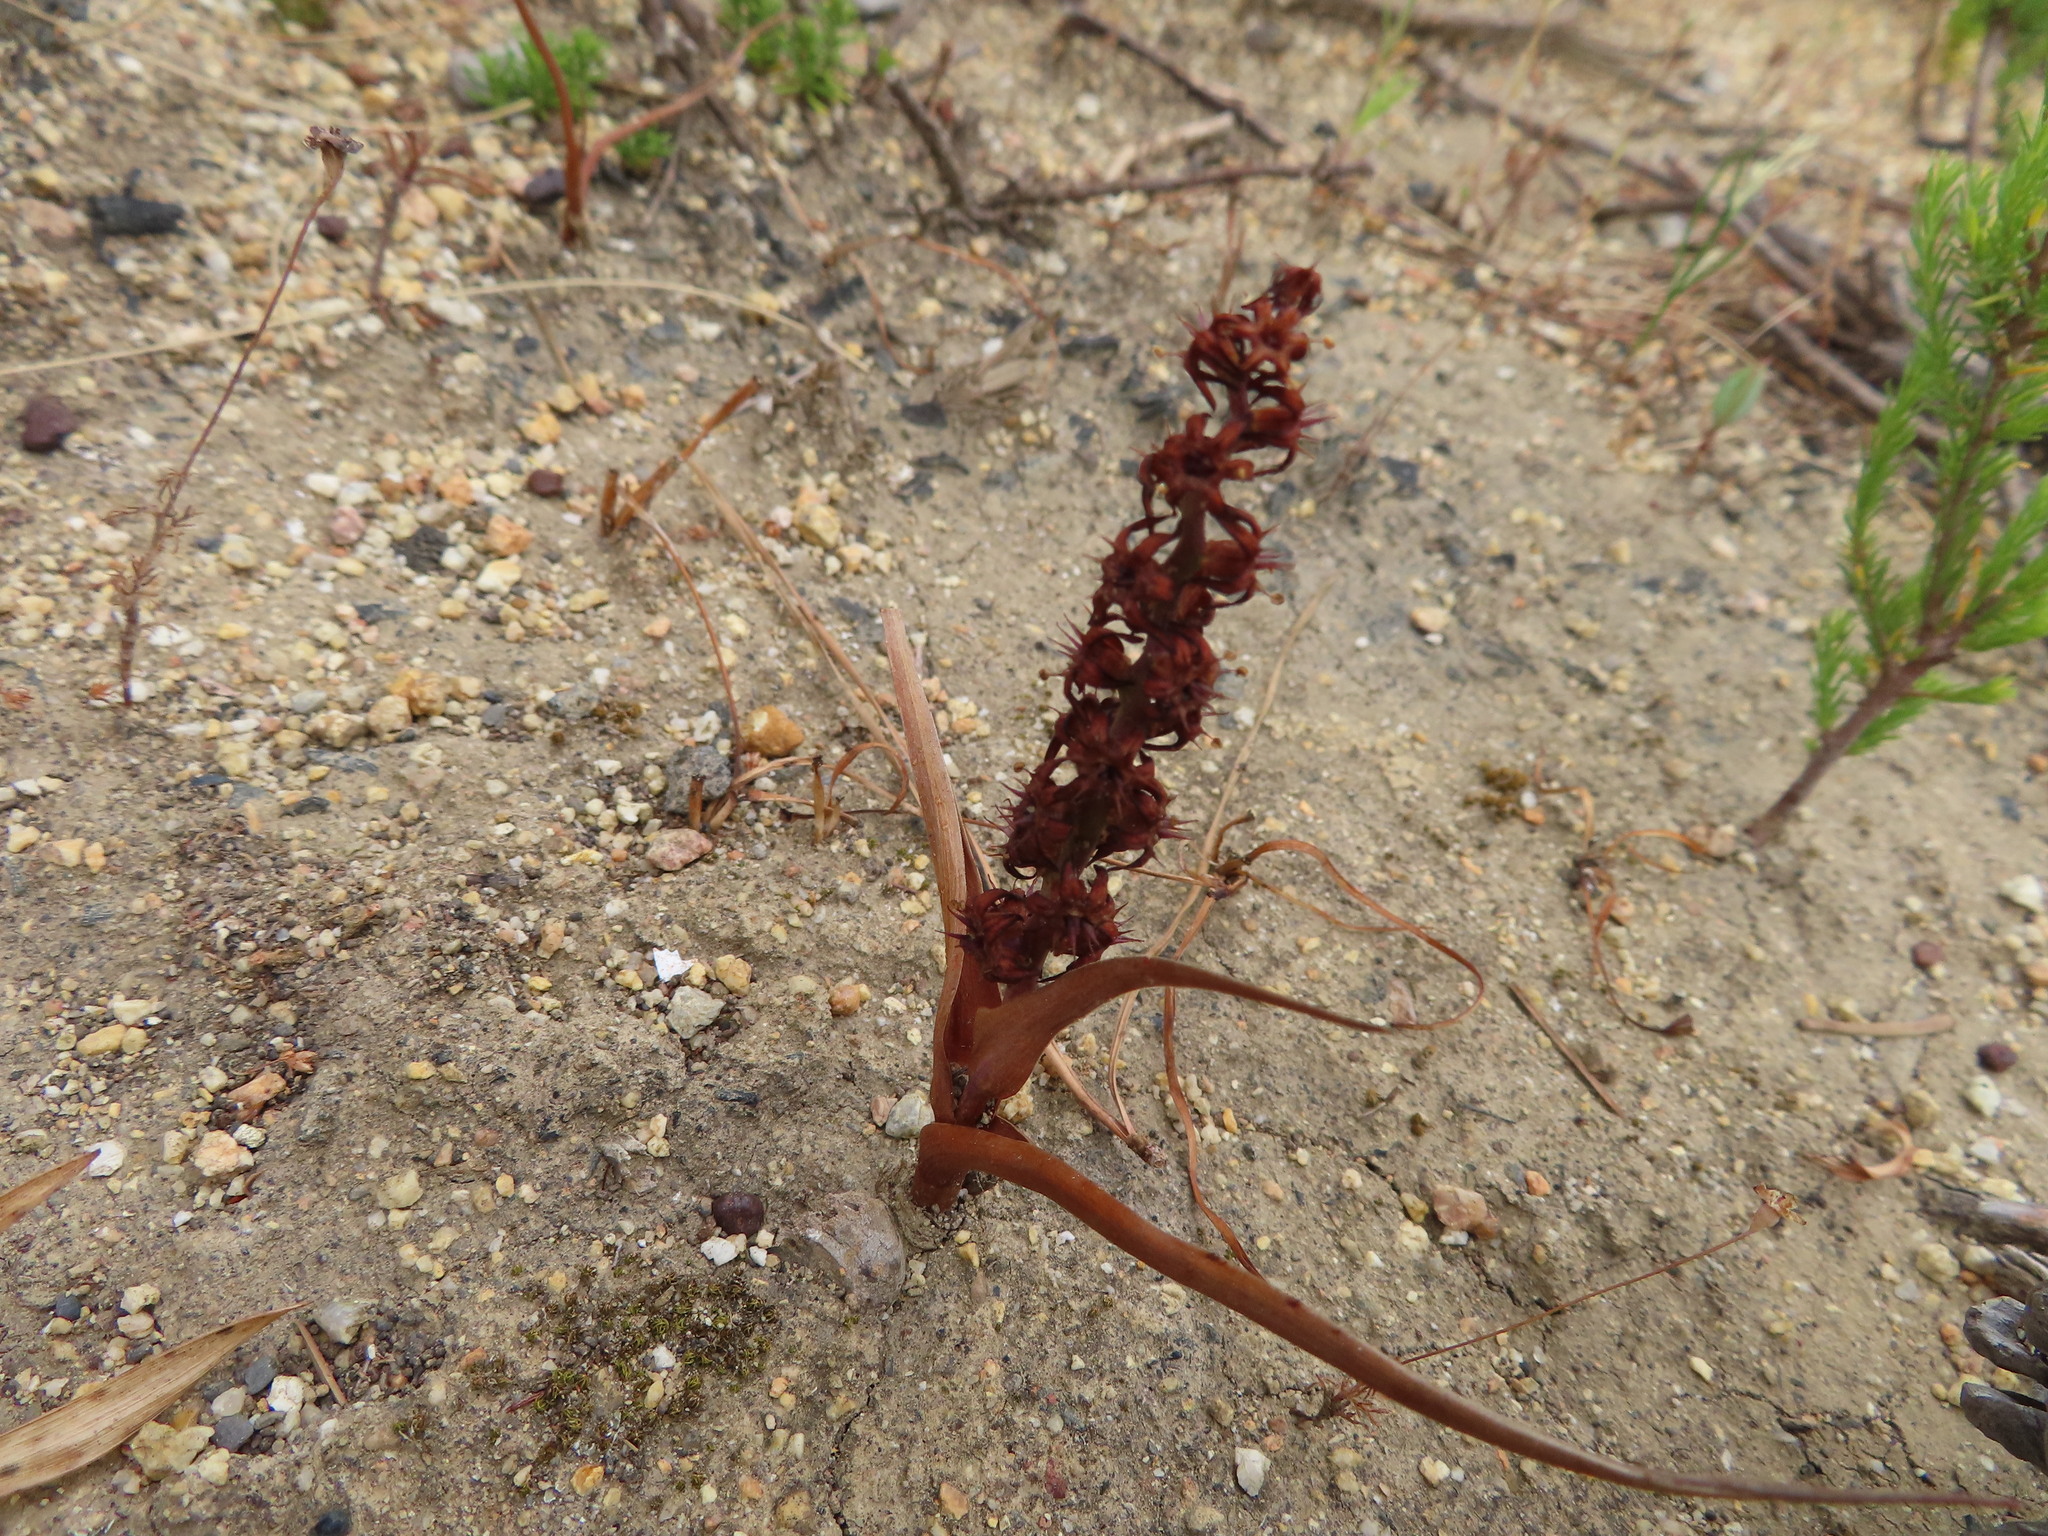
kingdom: Plantae
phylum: Tracheophyta
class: Liliopsida
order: Liliales
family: Colchicaceae
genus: Wurmbea
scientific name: Wurmbea recurva
